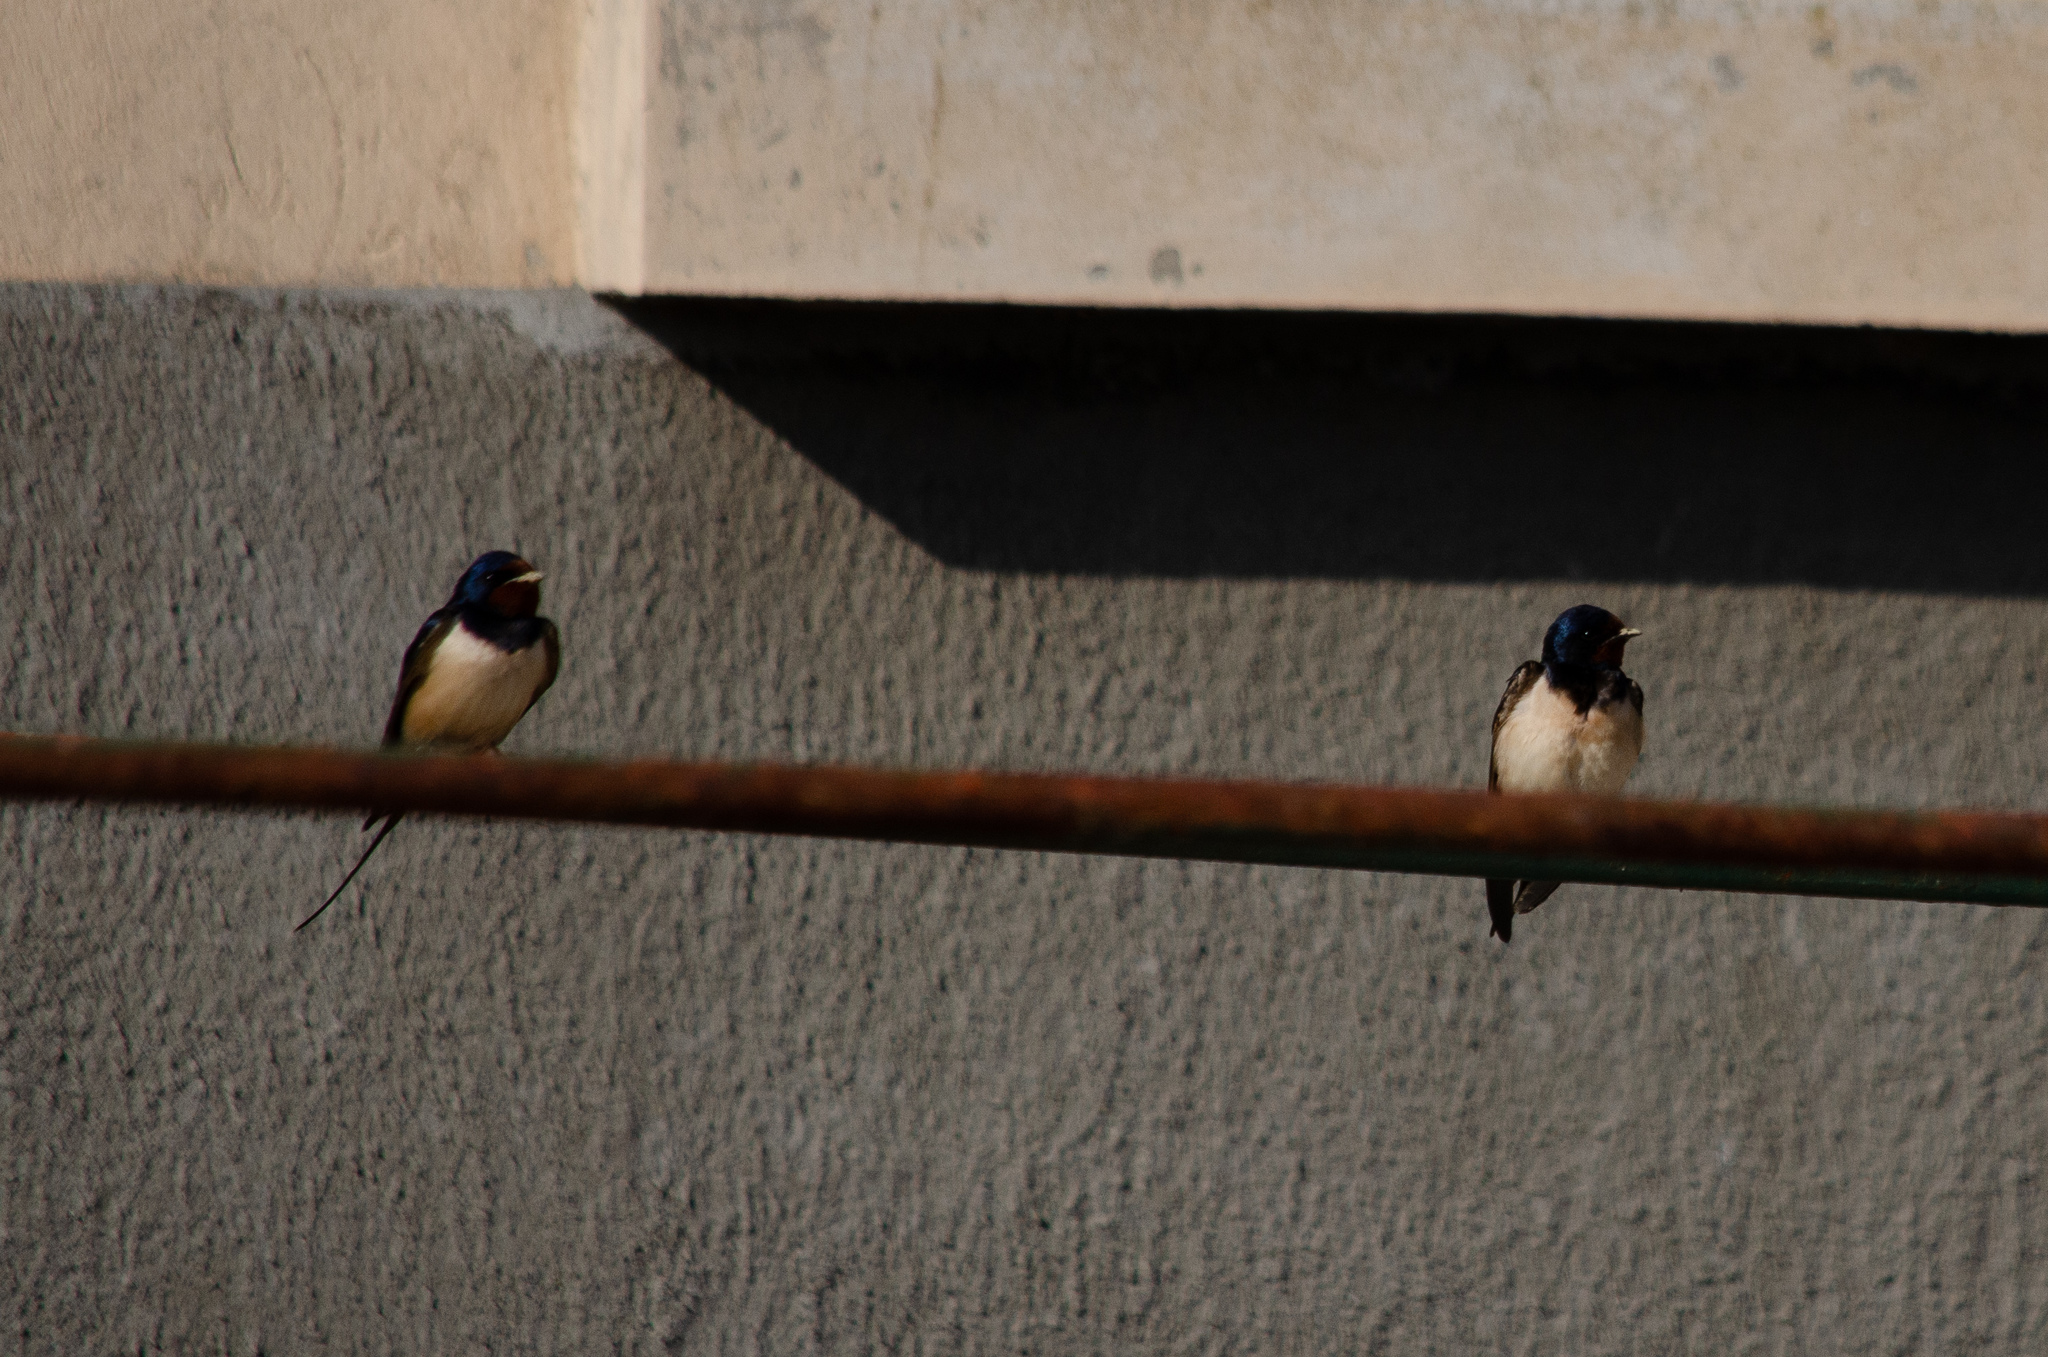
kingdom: Animalia
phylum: Chordata
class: Aves
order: Passeriformes
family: Hirundinidae
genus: Hirundo
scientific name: Hirundo rustica
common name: Barn swallow
